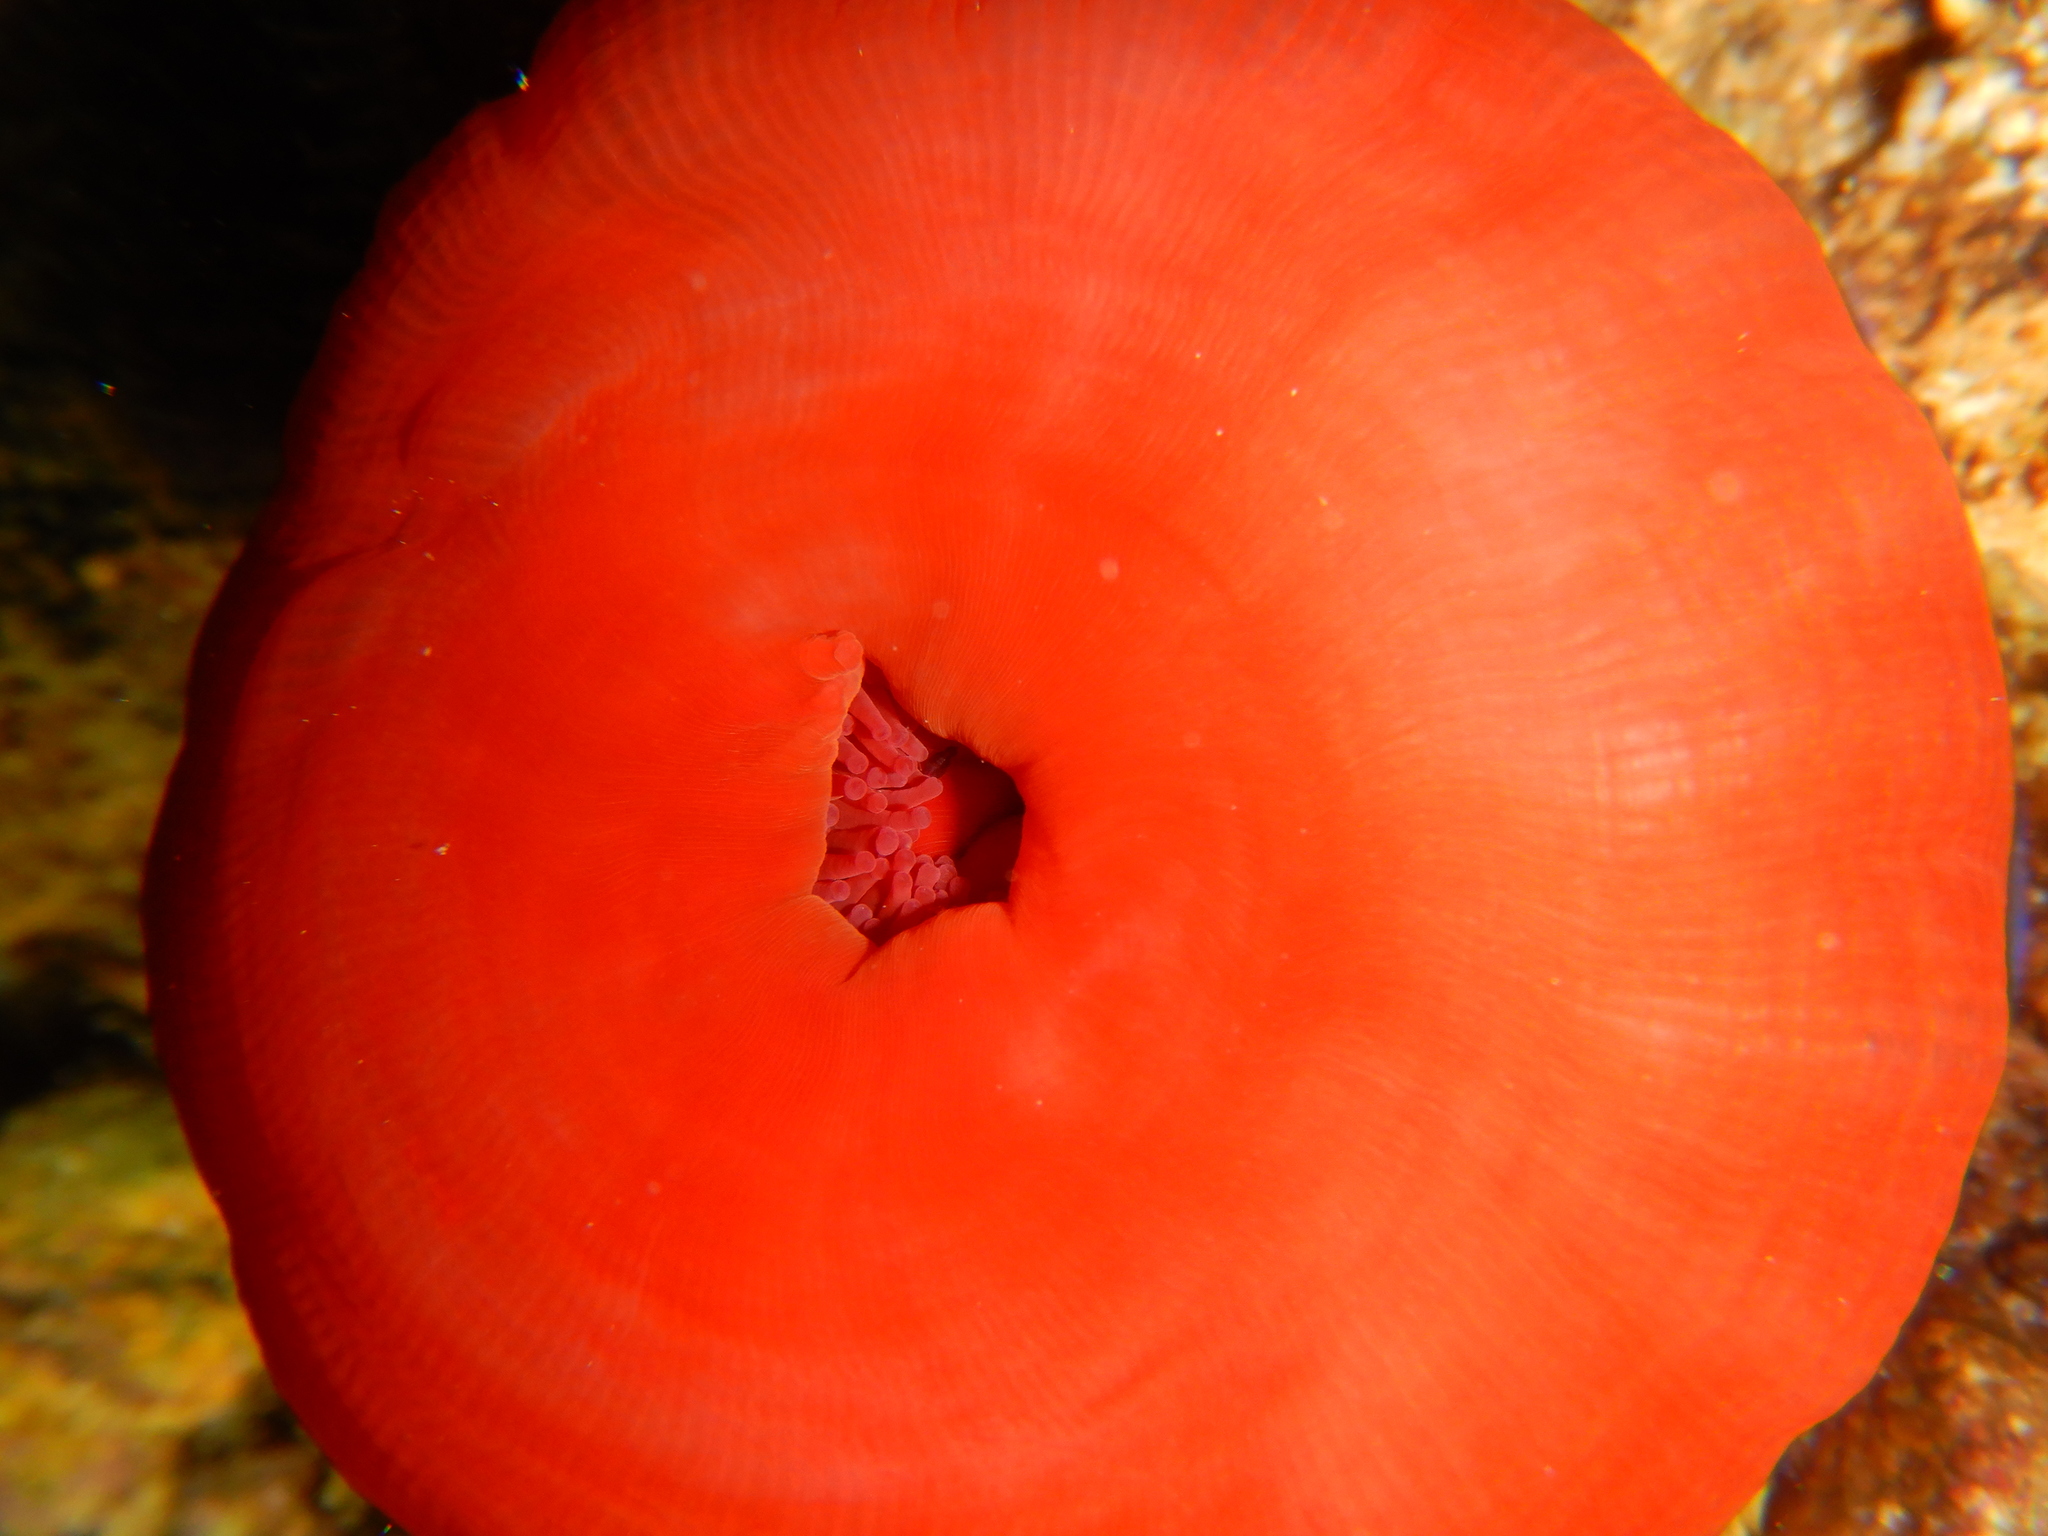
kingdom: Animalia
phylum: Cnidaria
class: Anthozoa
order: Actiniaria
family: Actiniidae
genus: Actinia
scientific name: Actinia mediterranea
